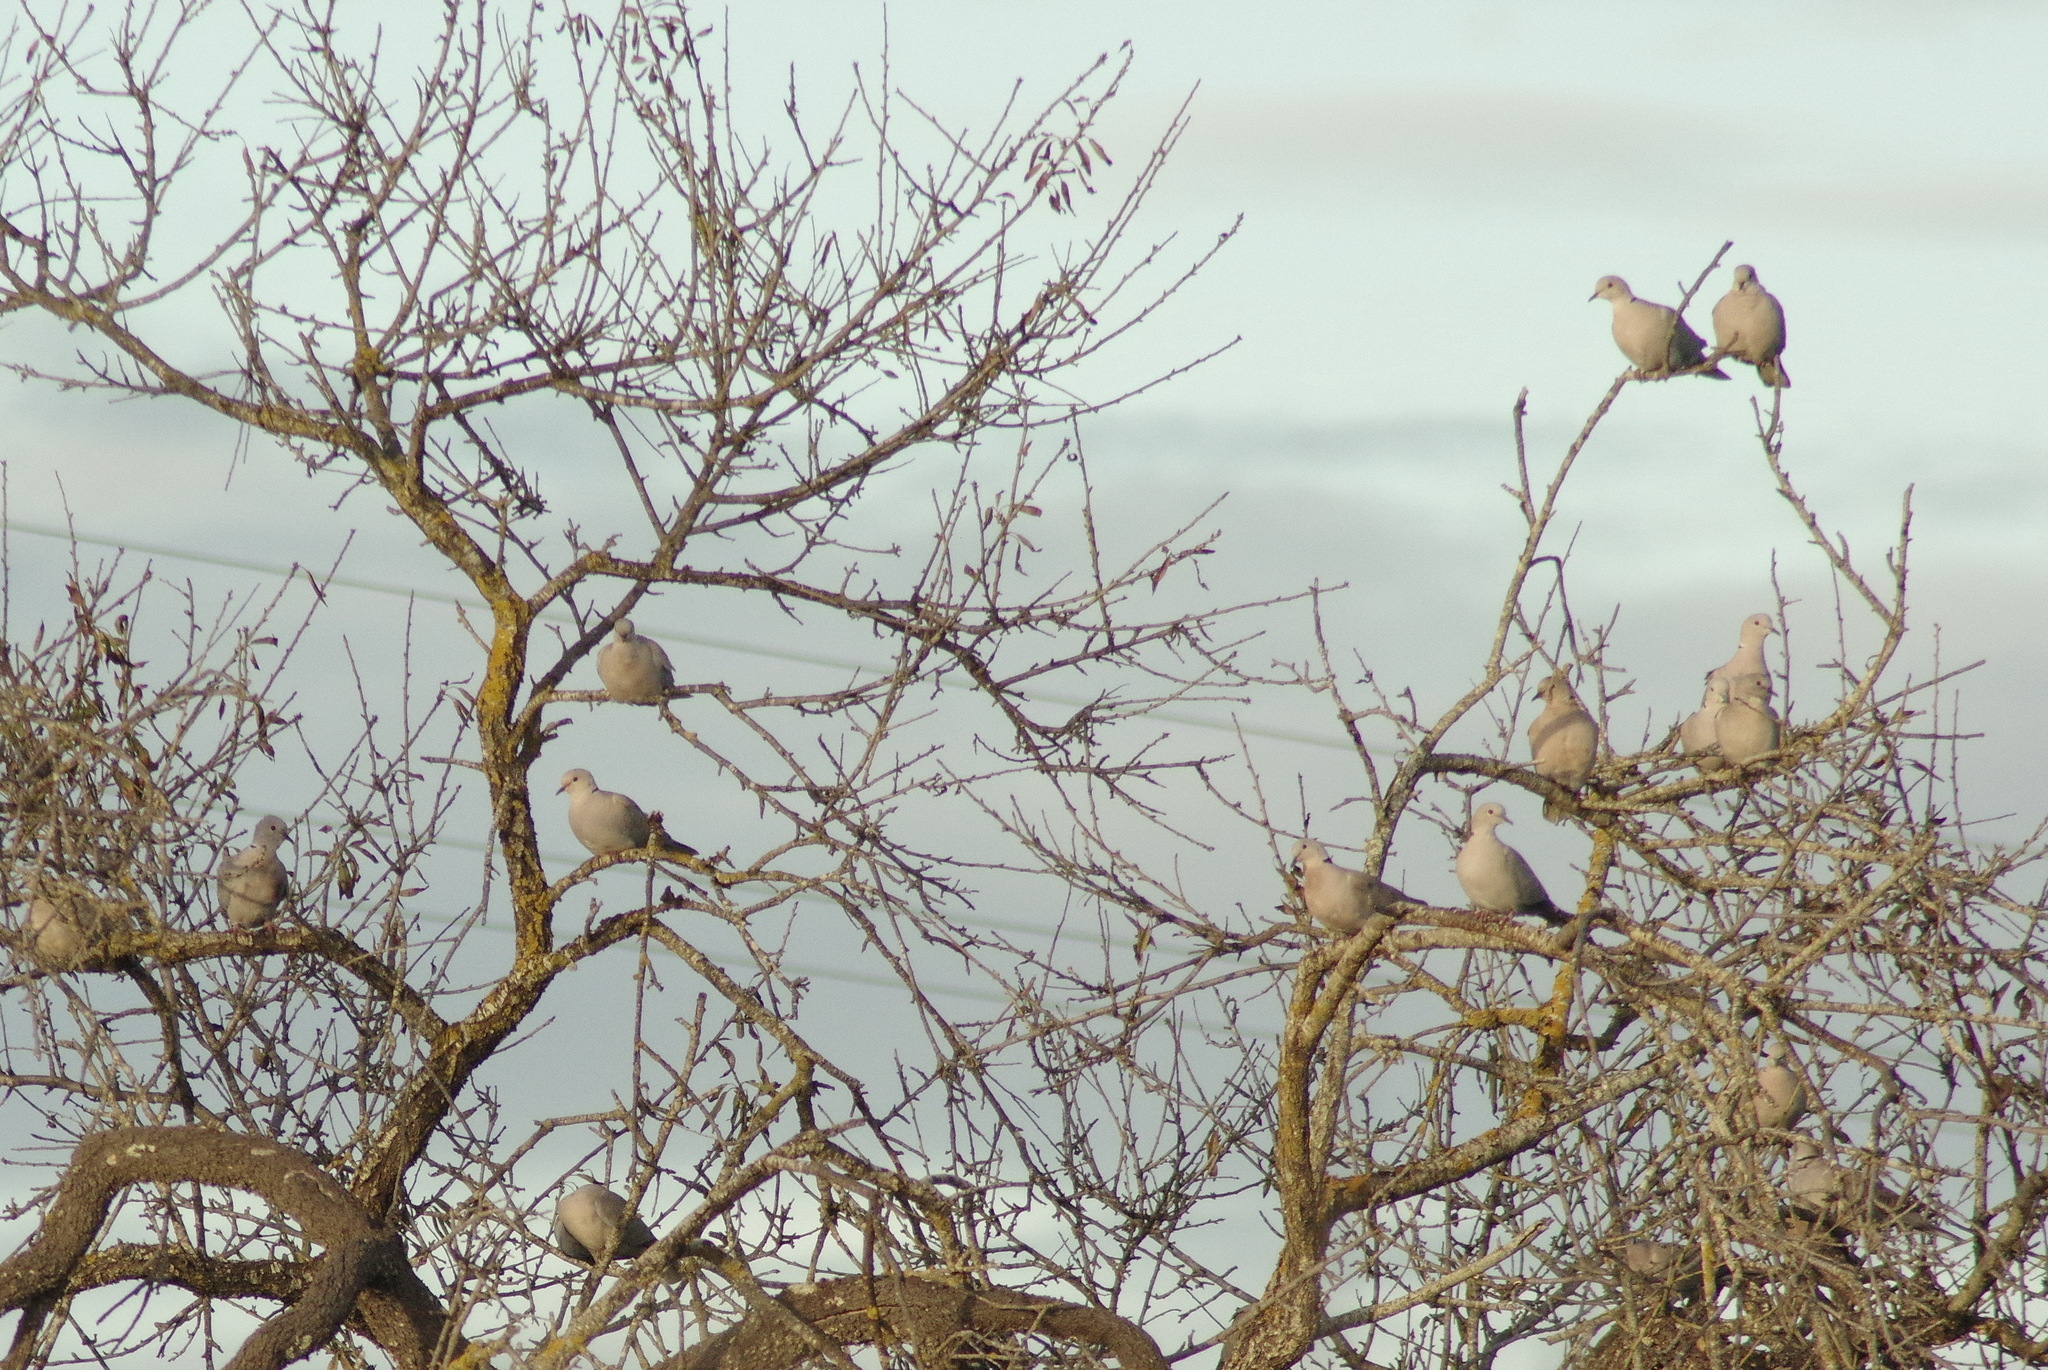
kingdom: Animalia
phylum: Chordata
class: Aves
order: Columbiformes
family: Columbidae
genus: Streptopelia
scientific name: Streptopelia decaocto
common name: Eurasian collared dove
